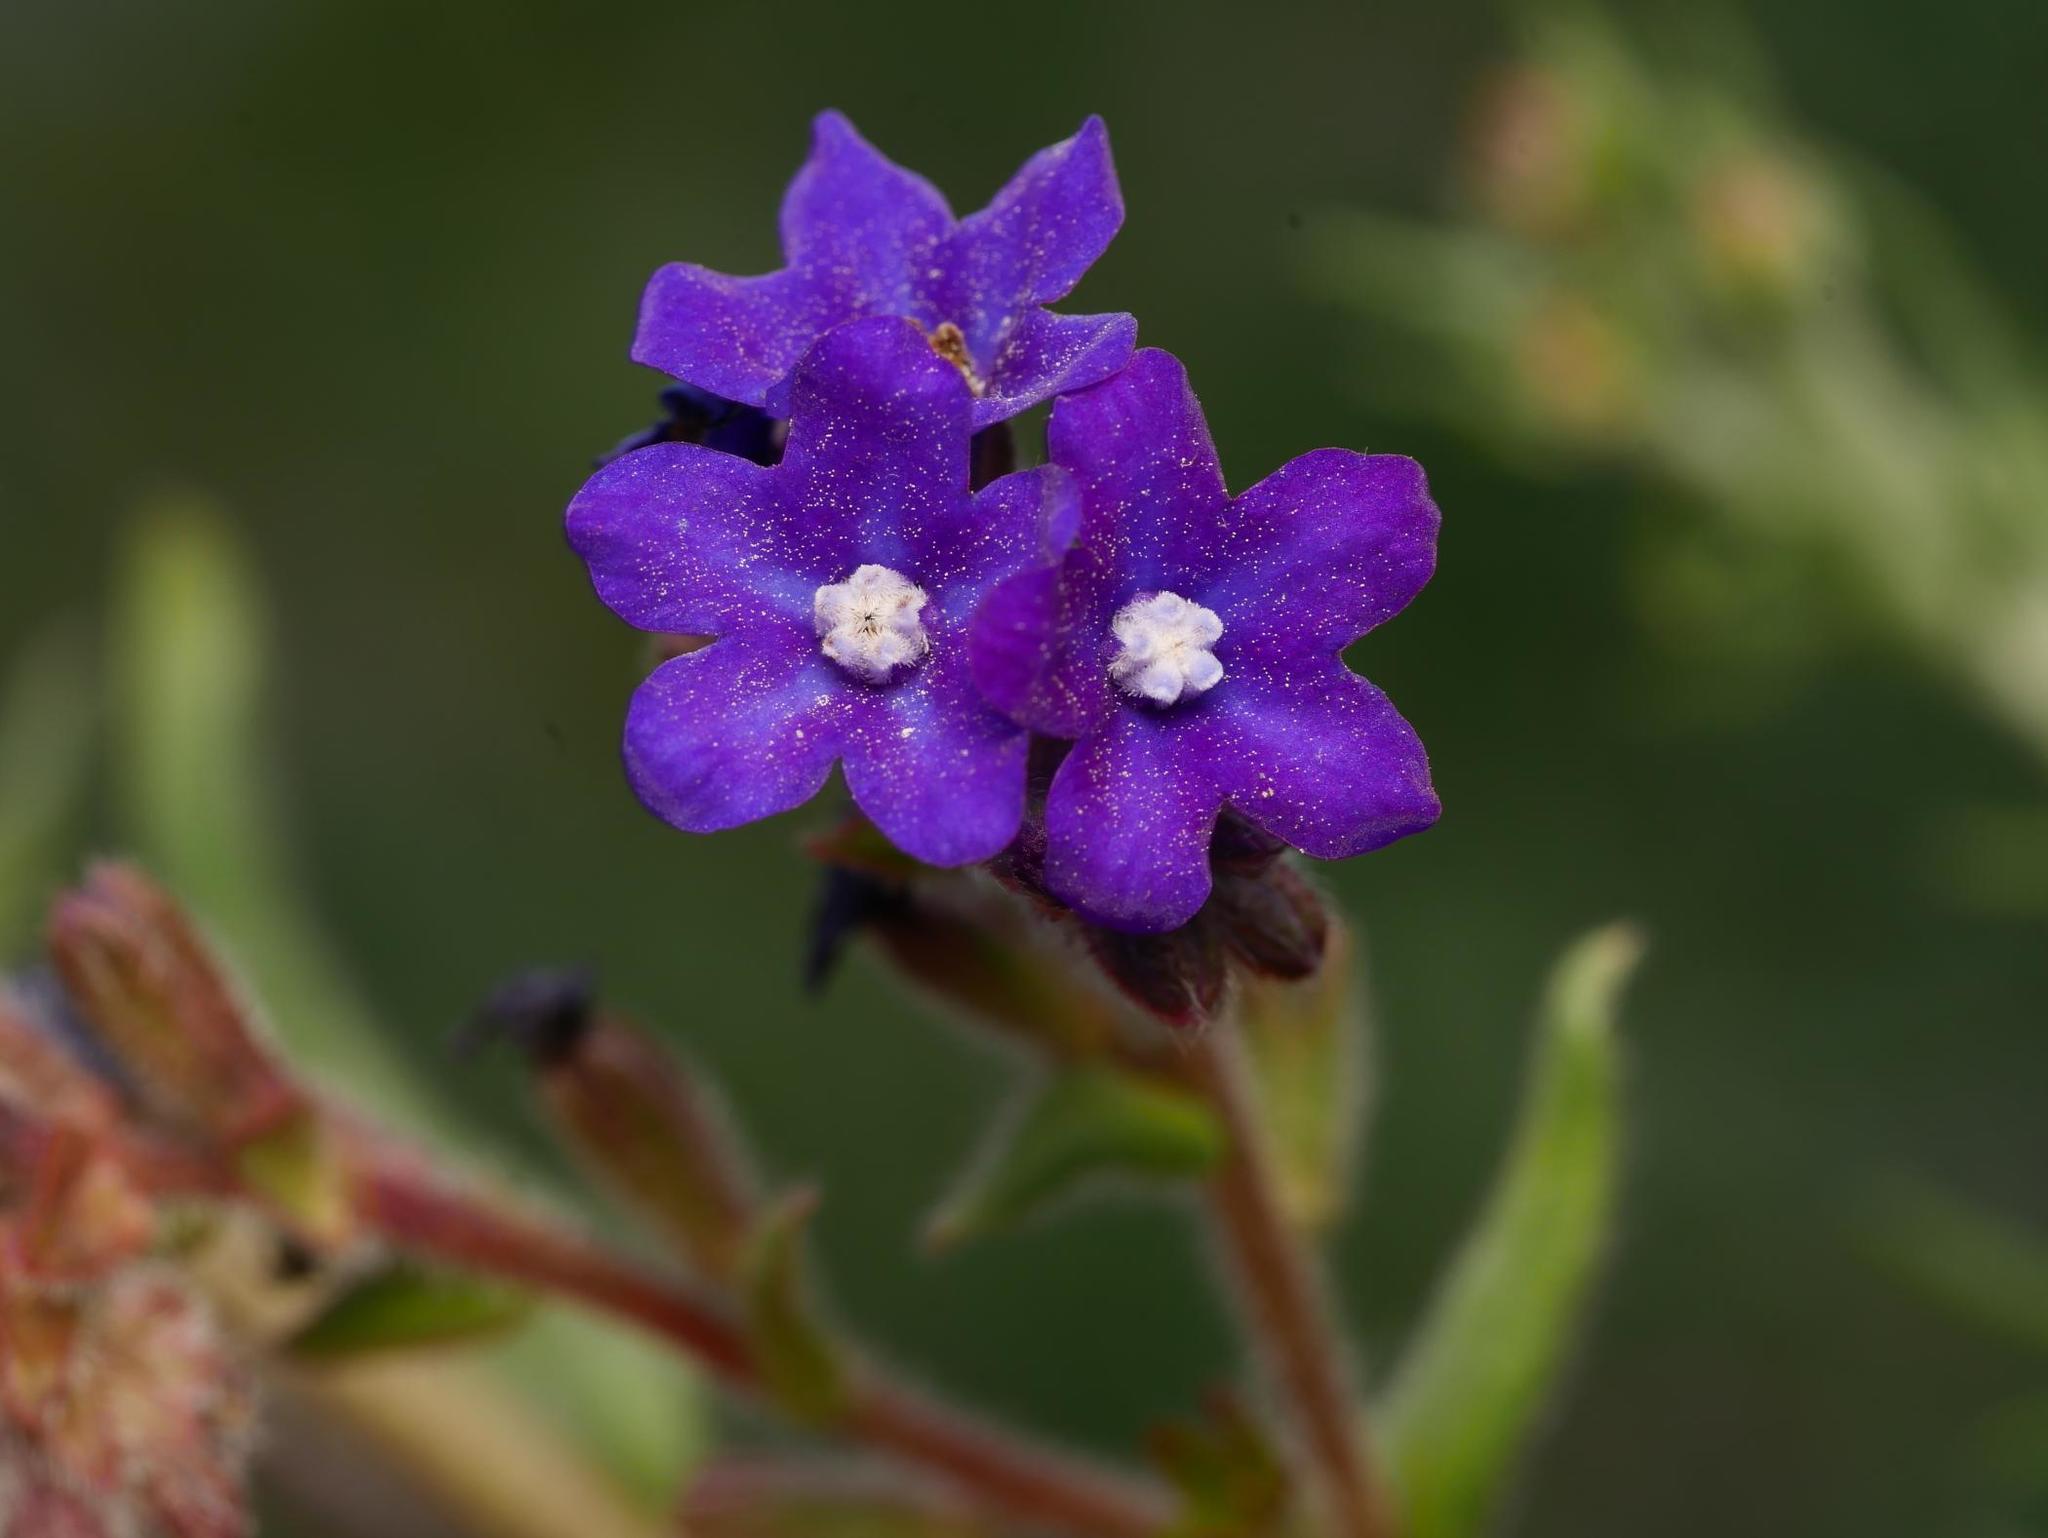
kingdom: Plantae
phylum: Tracheophyta
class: Magnoliopsida
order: Boraginales
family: Boraginaceae
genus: Anchusa
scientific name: Anchusa officinalis
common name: Alkanet
